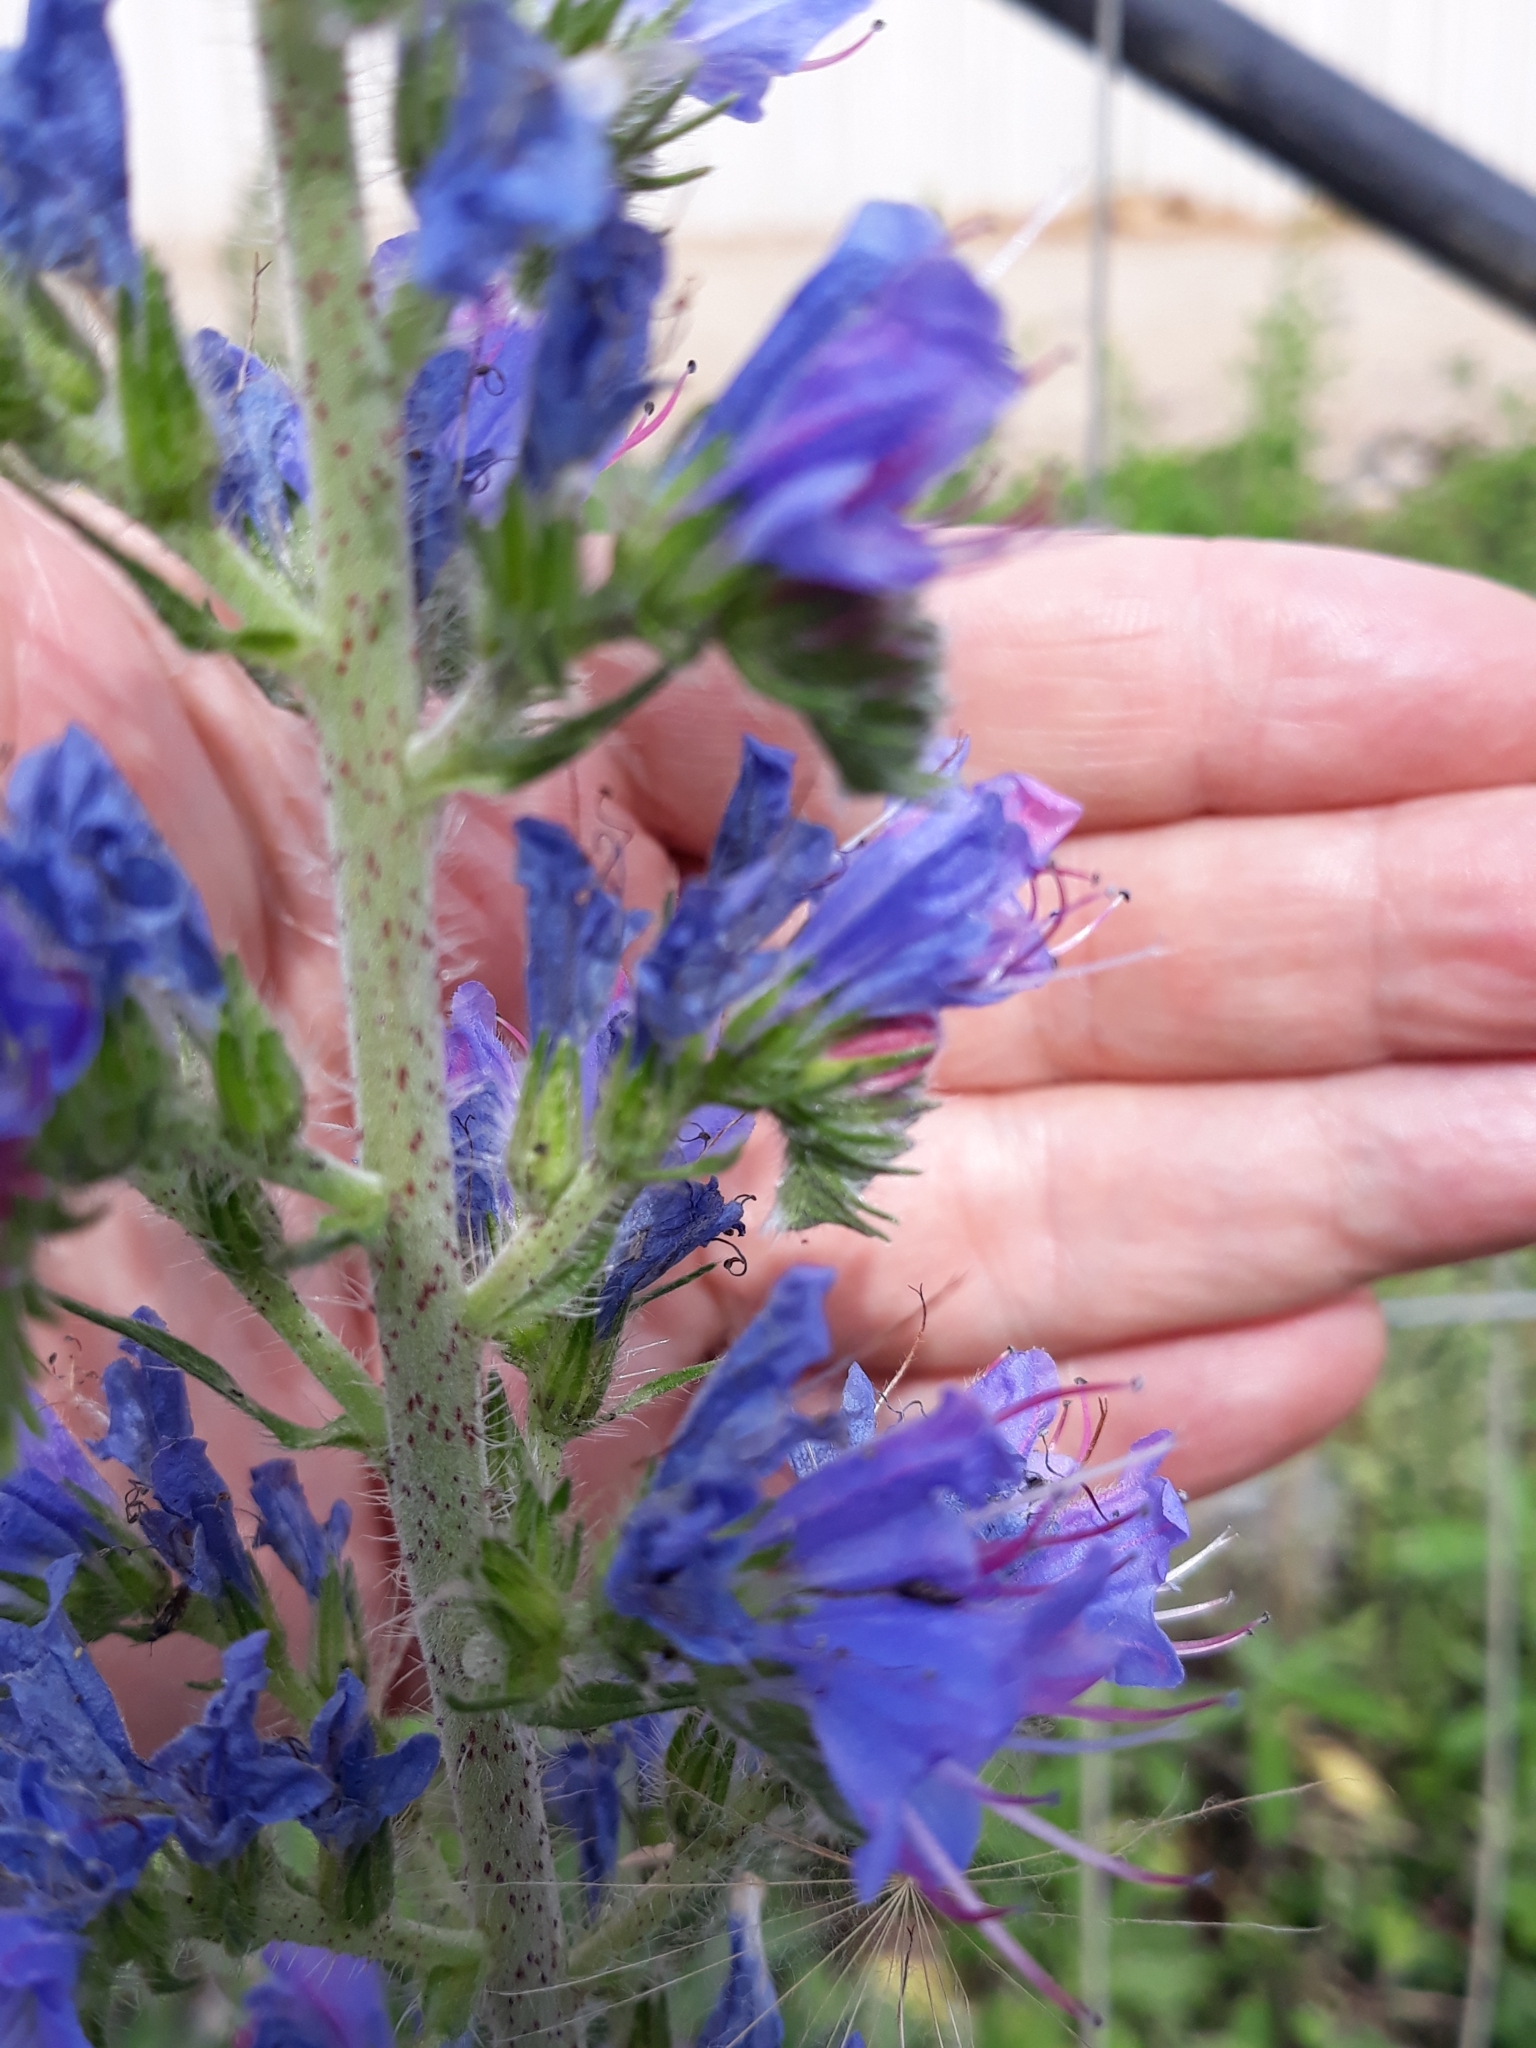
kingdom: Plantae
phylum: Tracheophyta
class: Magnoliopsida
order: Boraginales
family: Boraginaceae
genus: Echium
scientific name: Echium vulgare
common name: Common viper's bugloss
